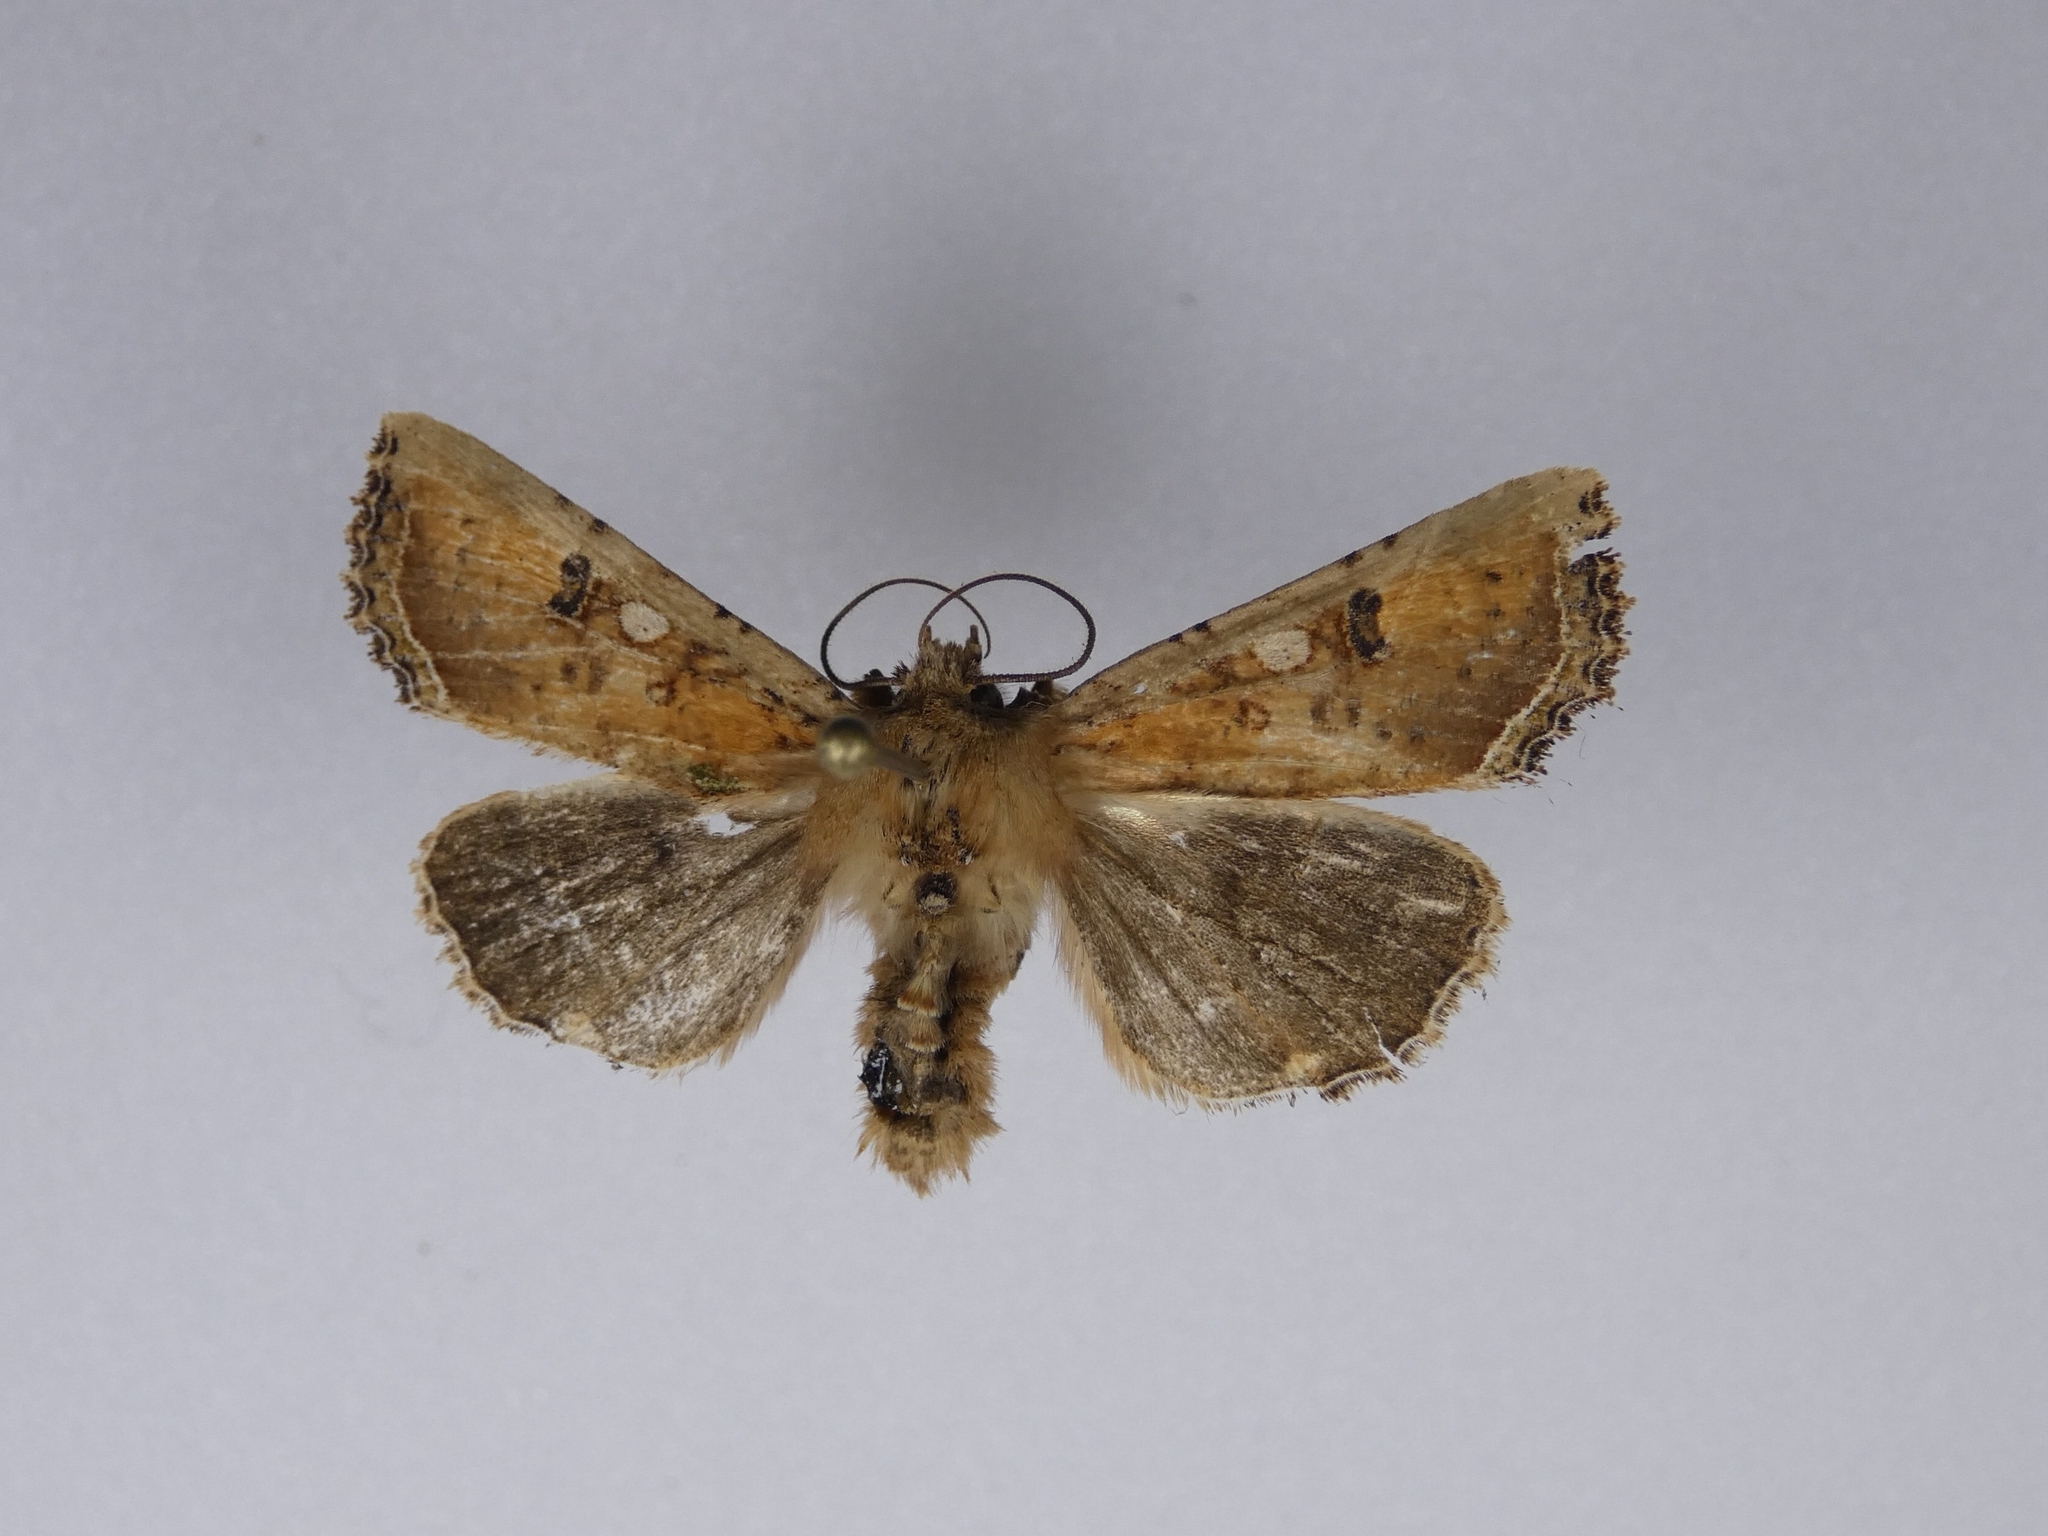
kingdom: Animalia
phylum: Arthropoda
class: Insecta
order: Lepidoptera
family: Noctuidae
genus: Meterana
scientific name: Meterana inchoata
